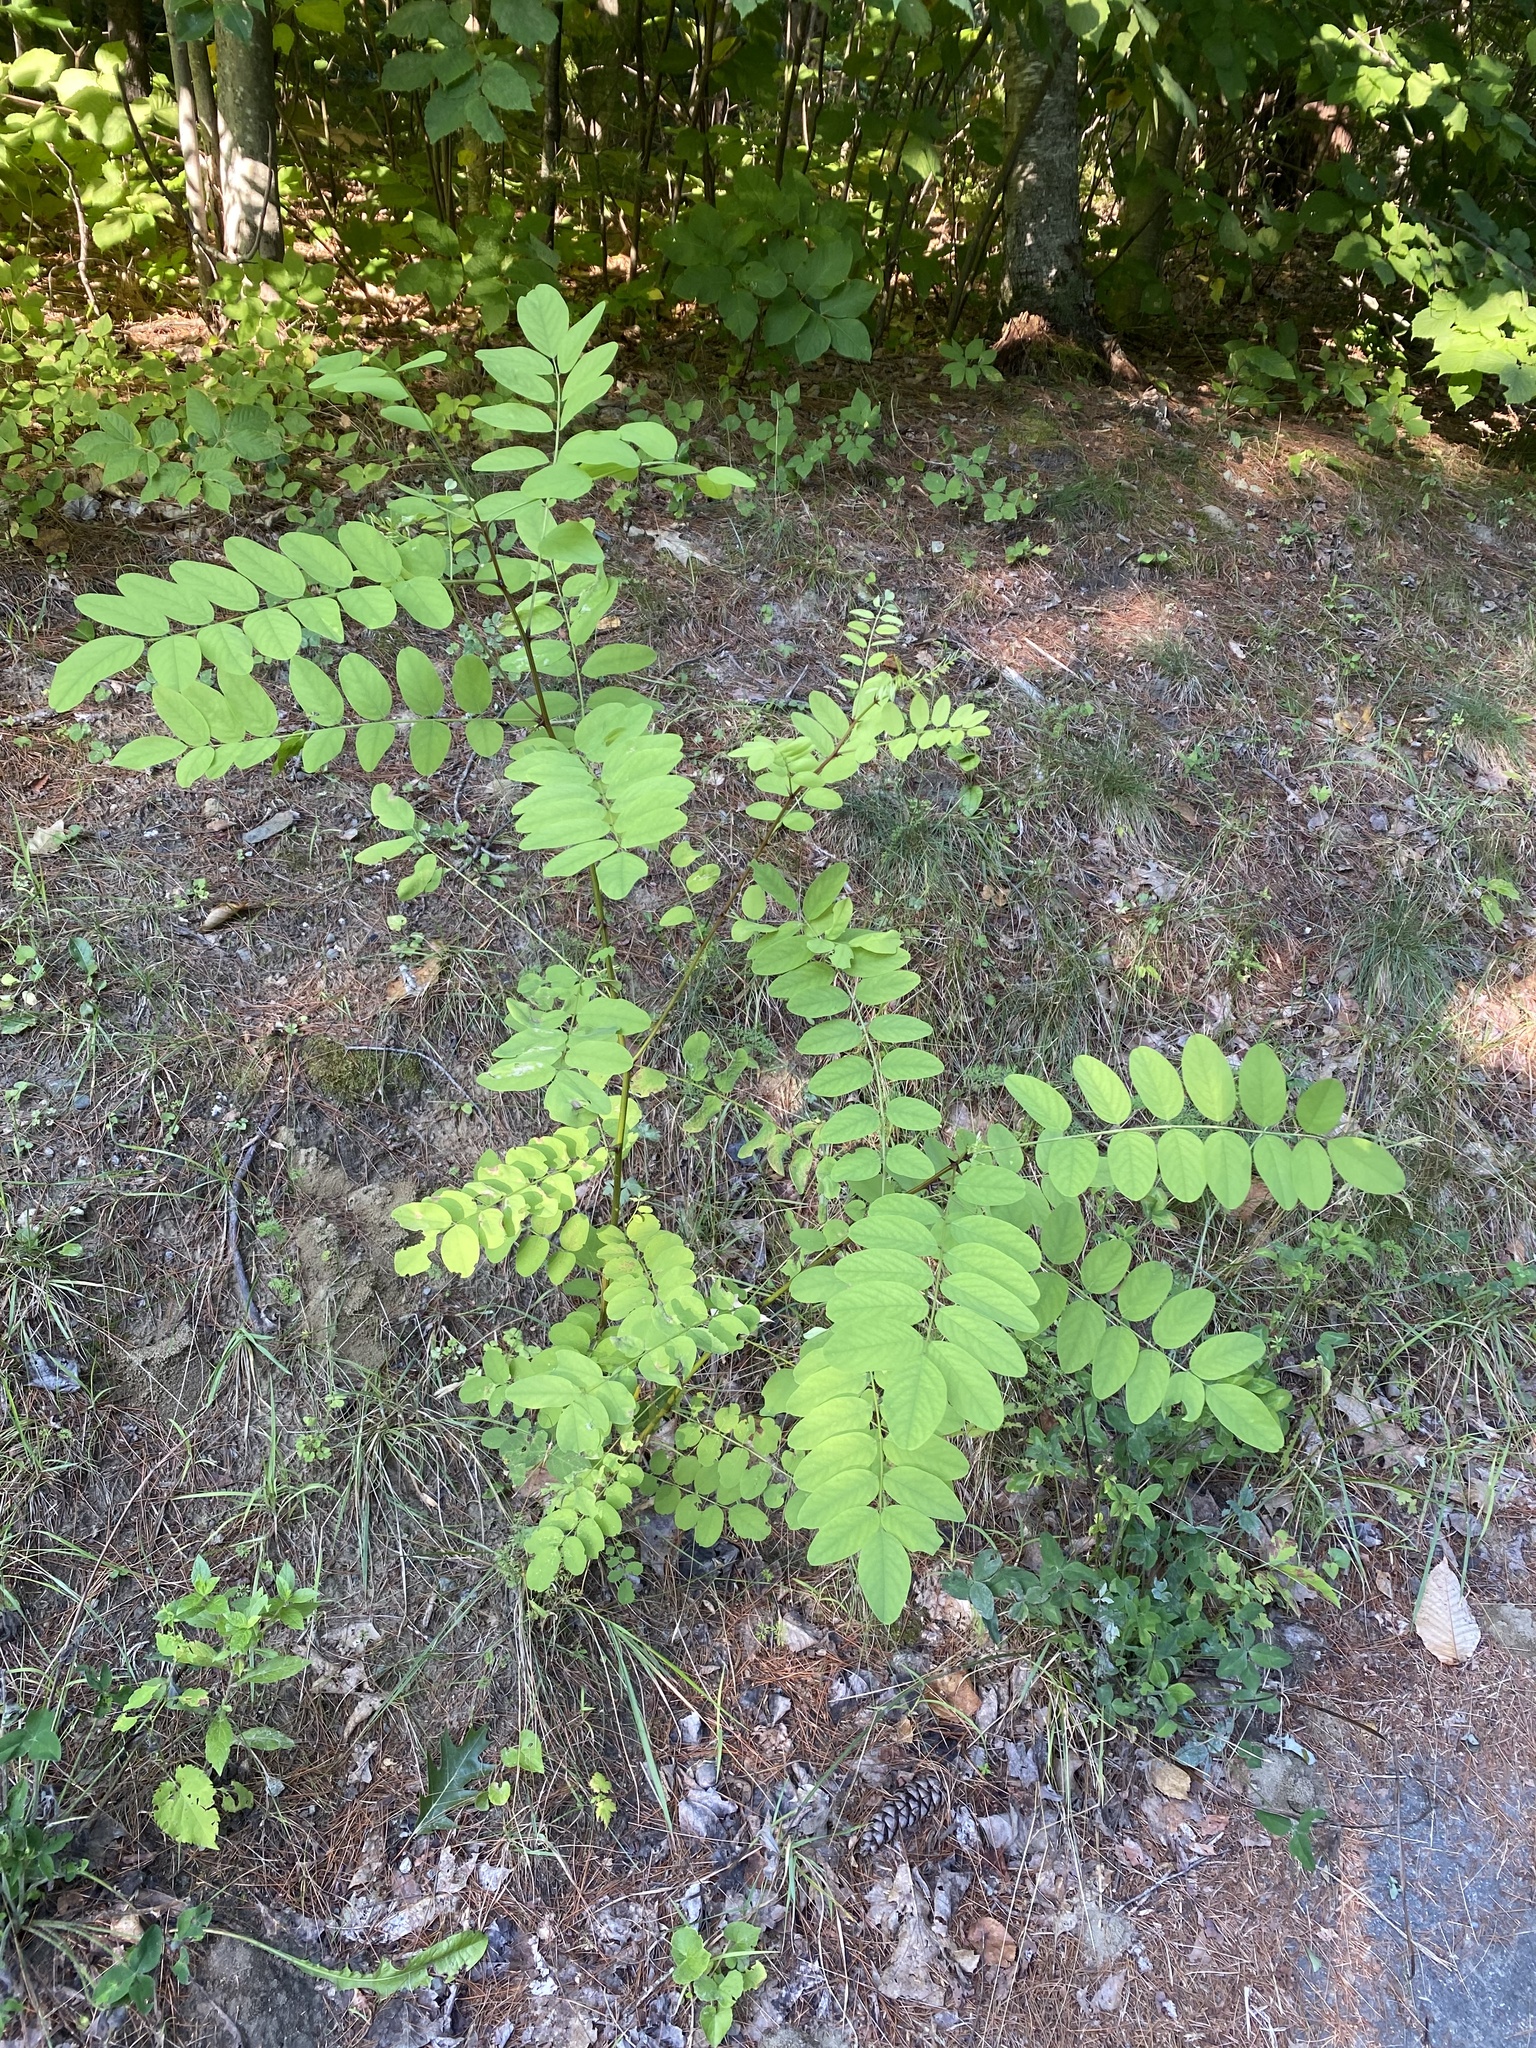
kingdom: Plantae
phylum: Tracheophyta
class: Magnoliopsida
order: Fabales
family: Fabaceae
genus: Robinia
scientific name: Robinia pseudoacacia
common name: Black locust
